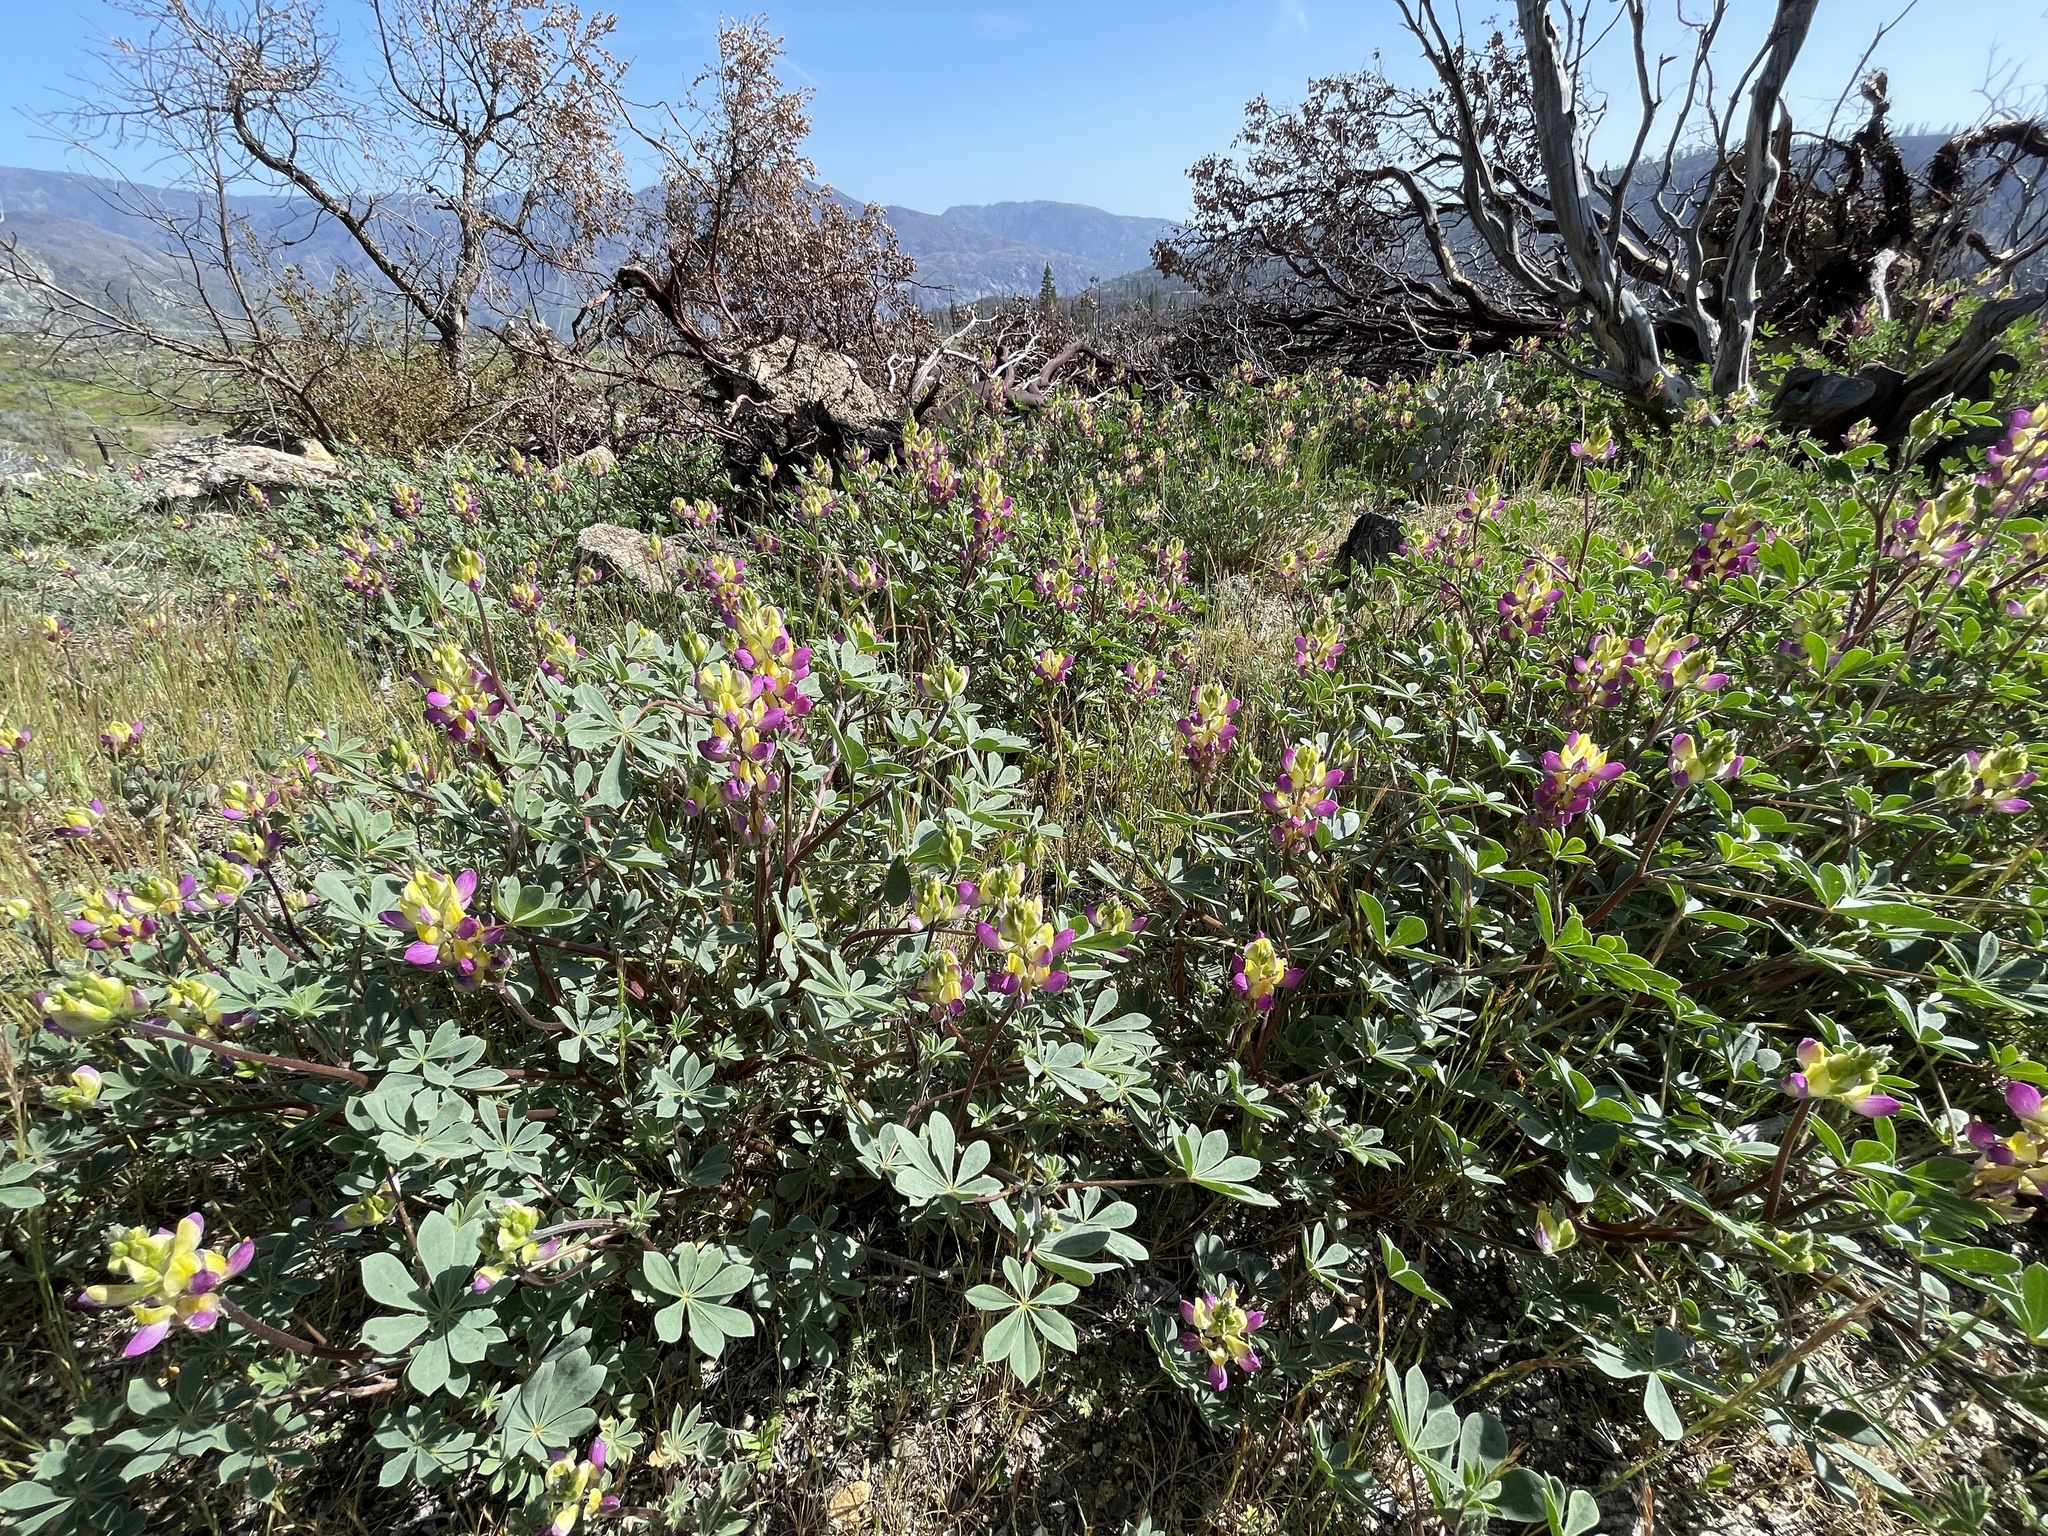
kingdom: Plantae
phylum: Tracheophyta
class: Magnoliopsida
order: Fabales
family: Fabaceae
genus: Lupinus
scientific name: Lupinus stiversii
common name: Harlequin lupine
